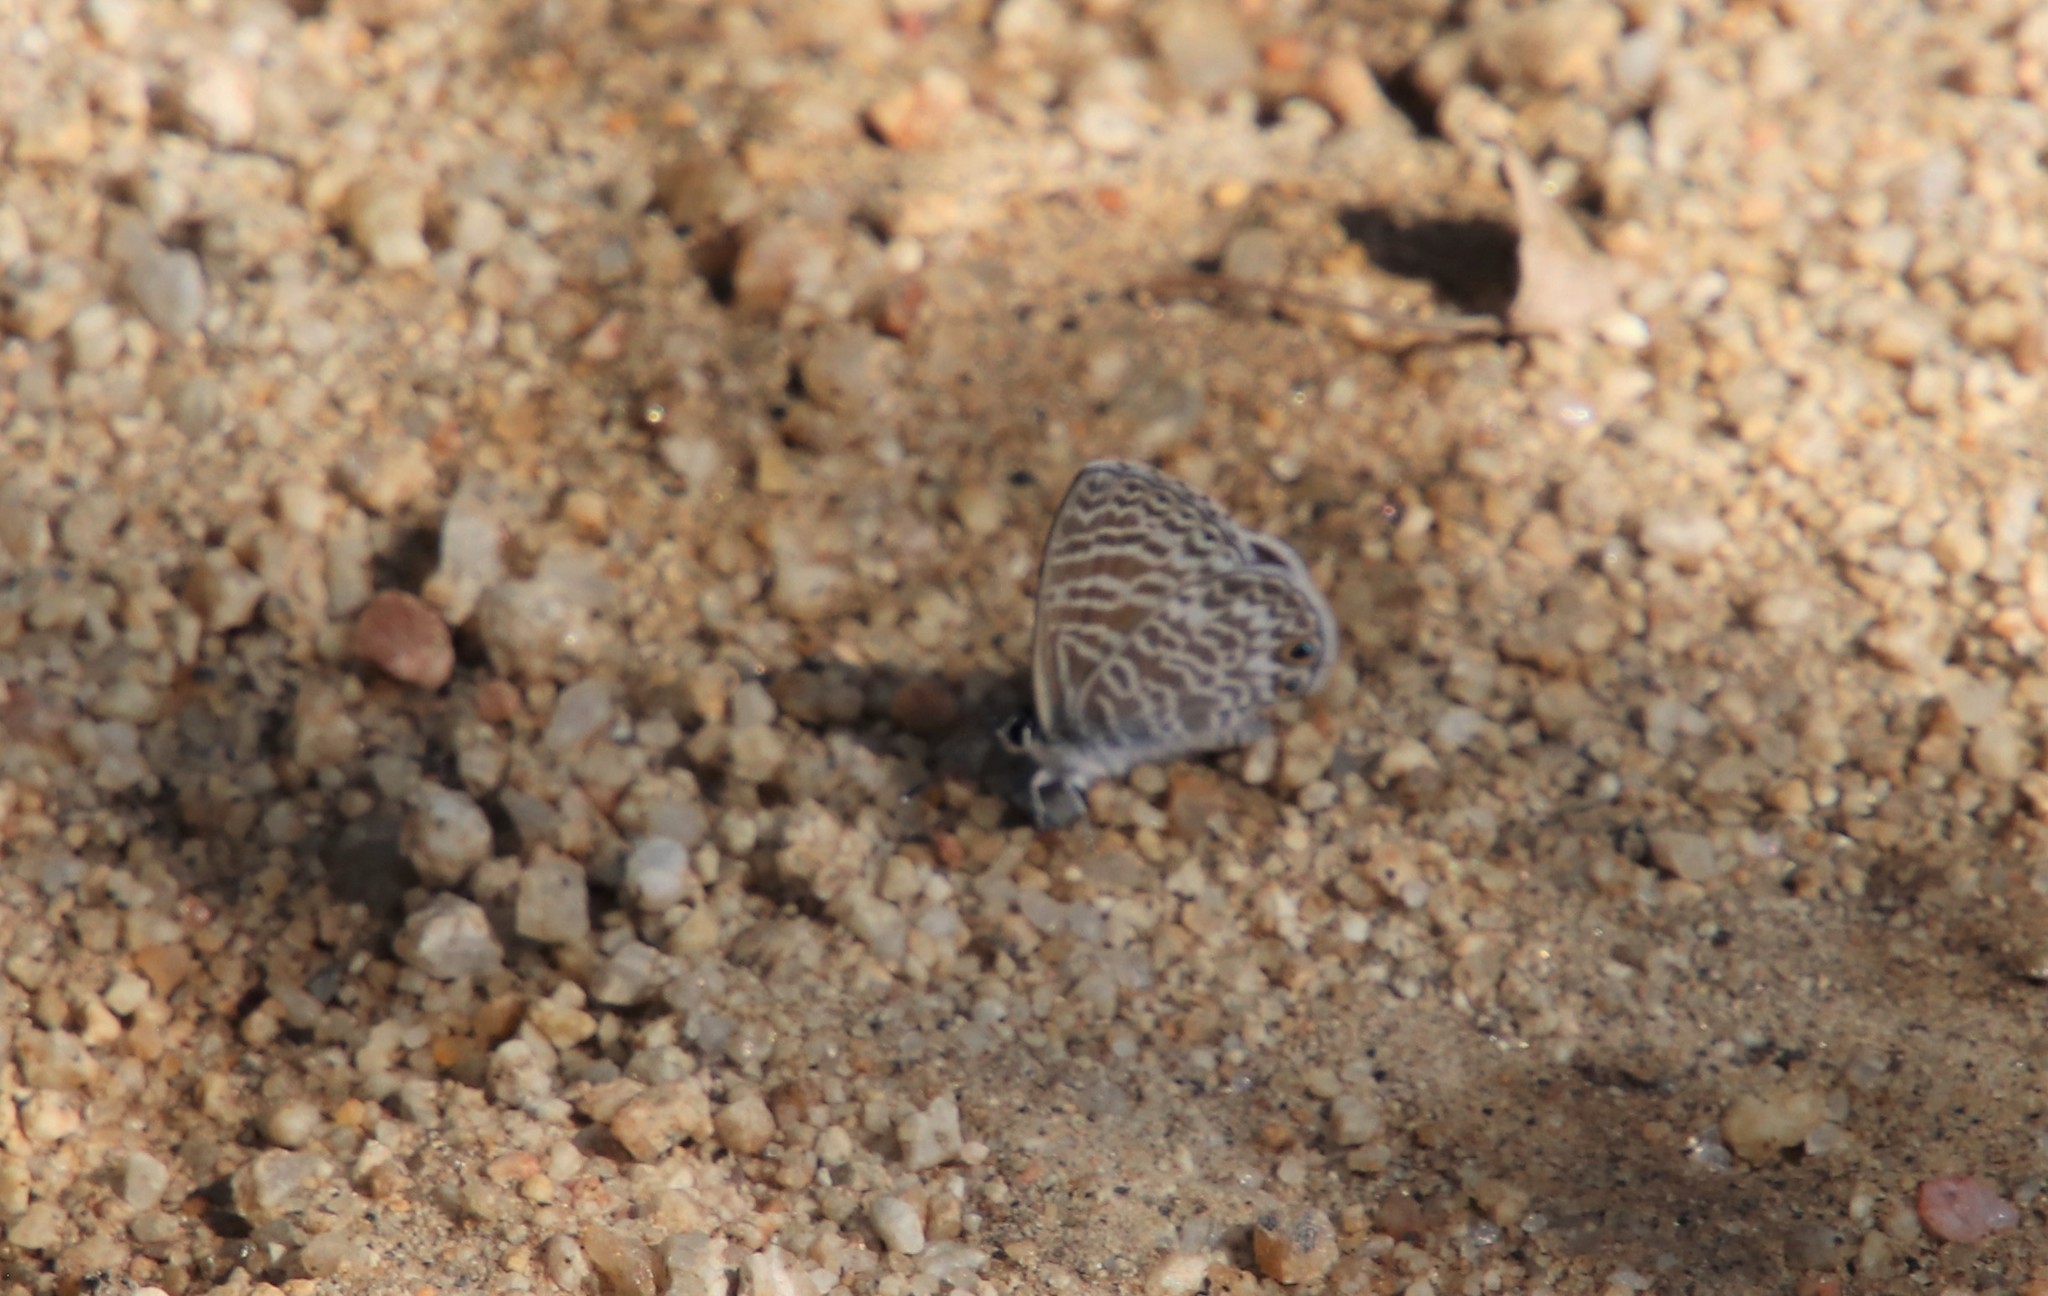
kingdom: Animalia
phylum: Arthropoda
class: Insecta
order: Lepidoptera
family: Lycaenidae
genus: Leptotes
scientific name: Leptotes marina
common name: Marine blue
